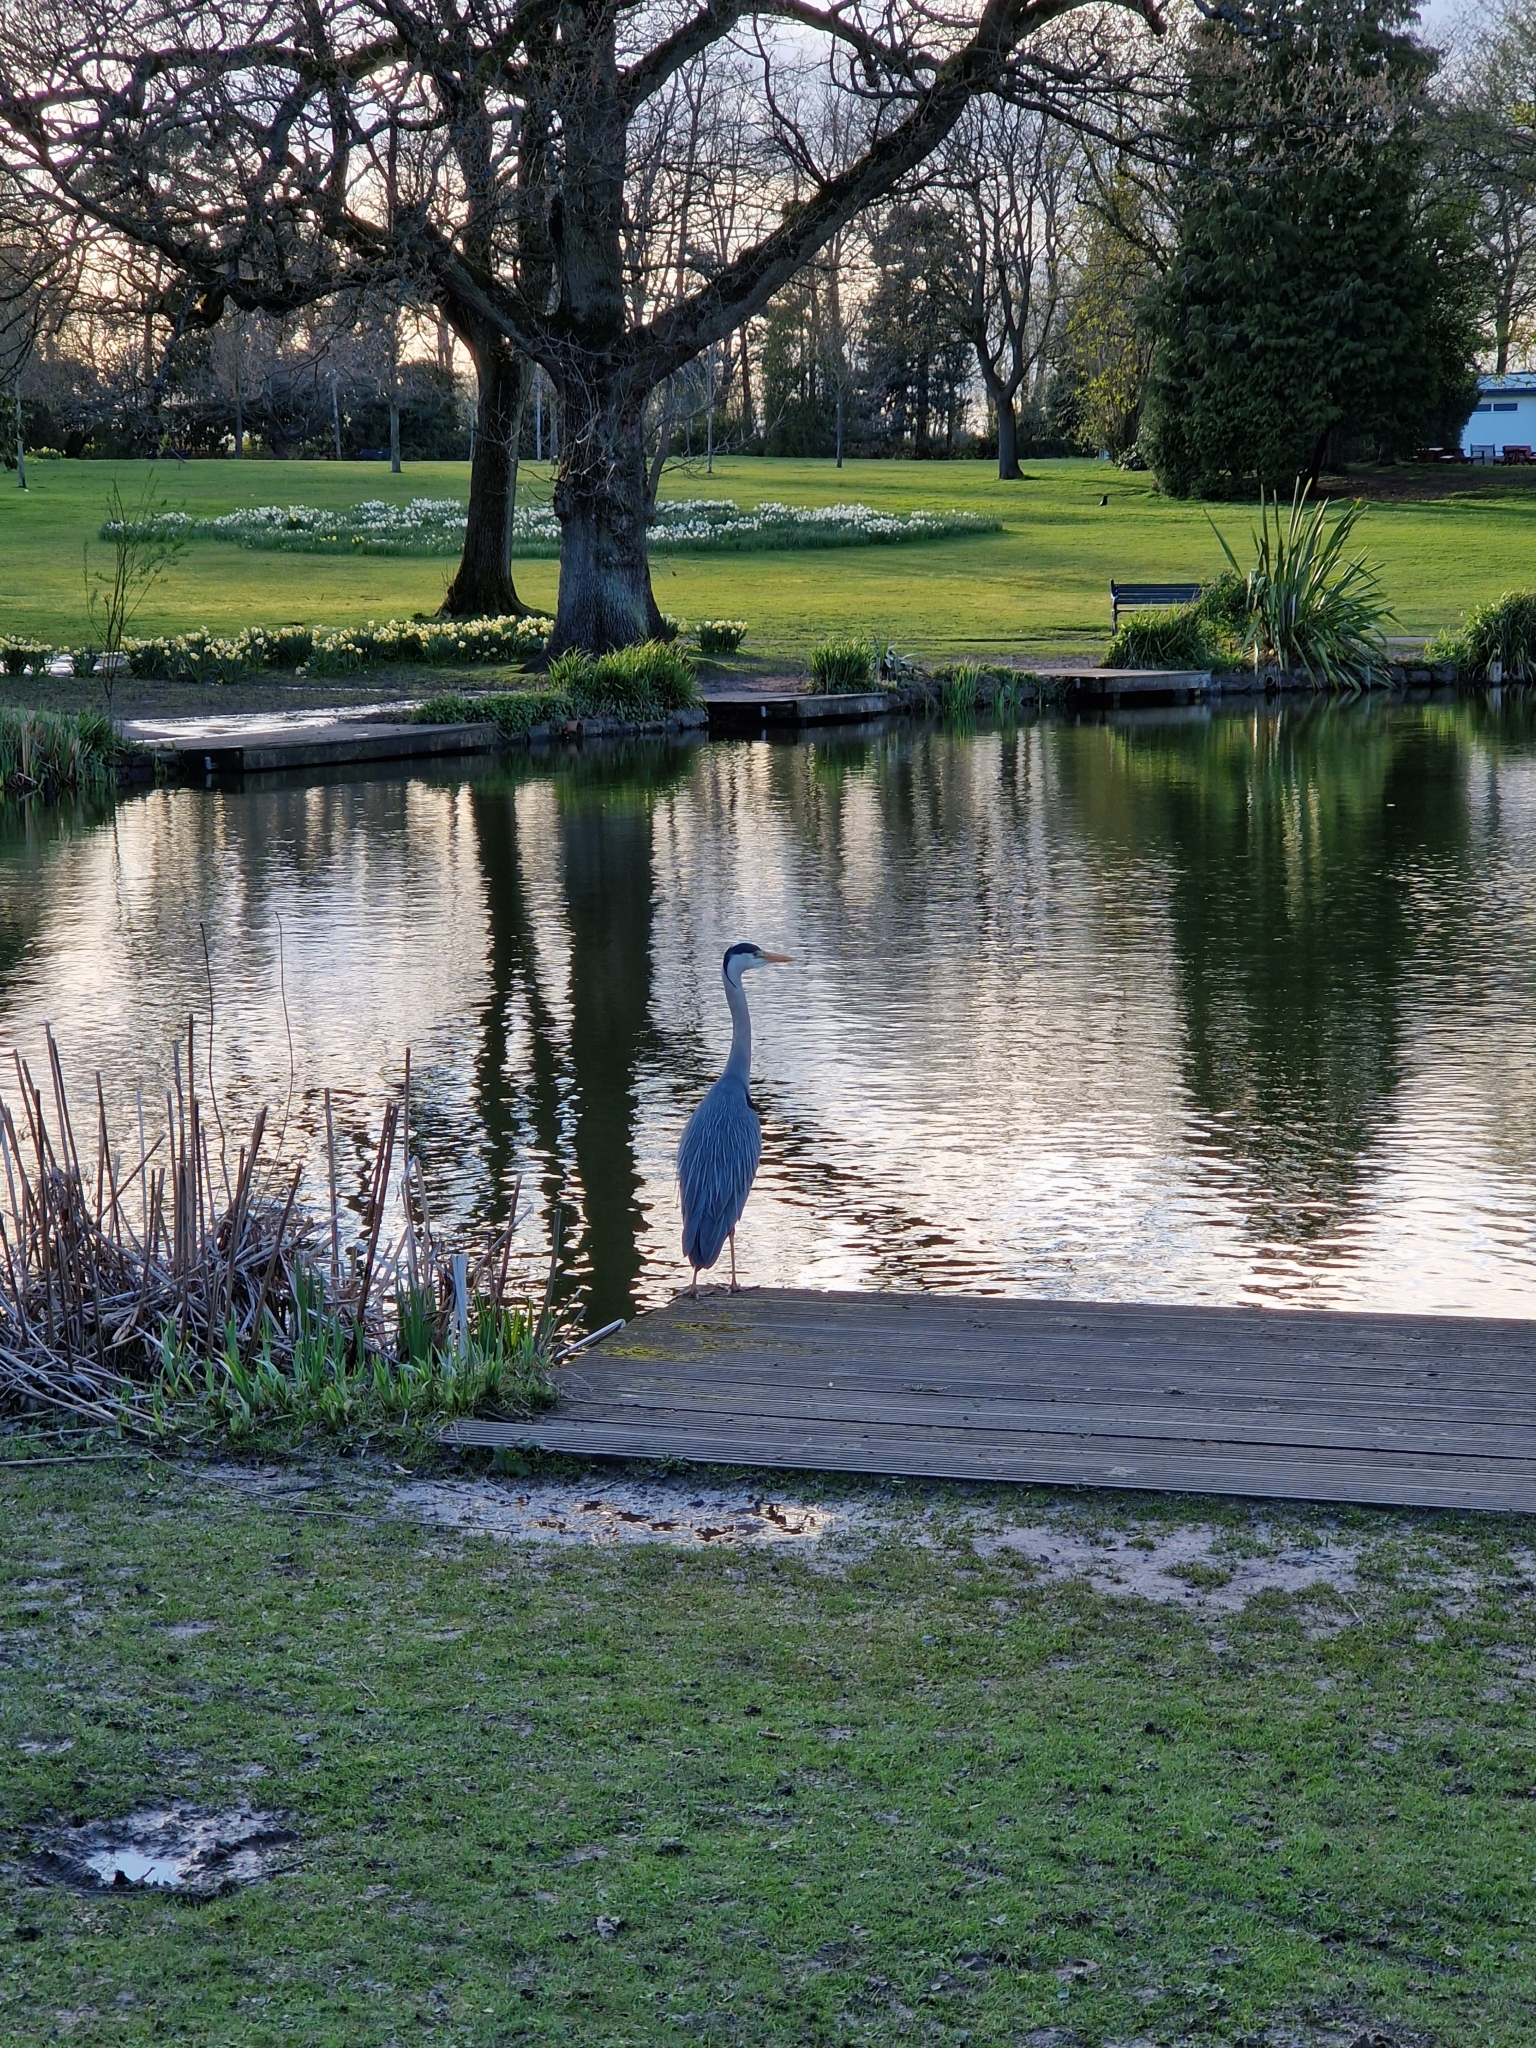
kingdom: Animalia
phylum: Chordata
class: Aves
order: Pelecaniformes
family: Ardeidae
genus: Ardea
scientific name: Ardea cinerea
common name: Grey heron
